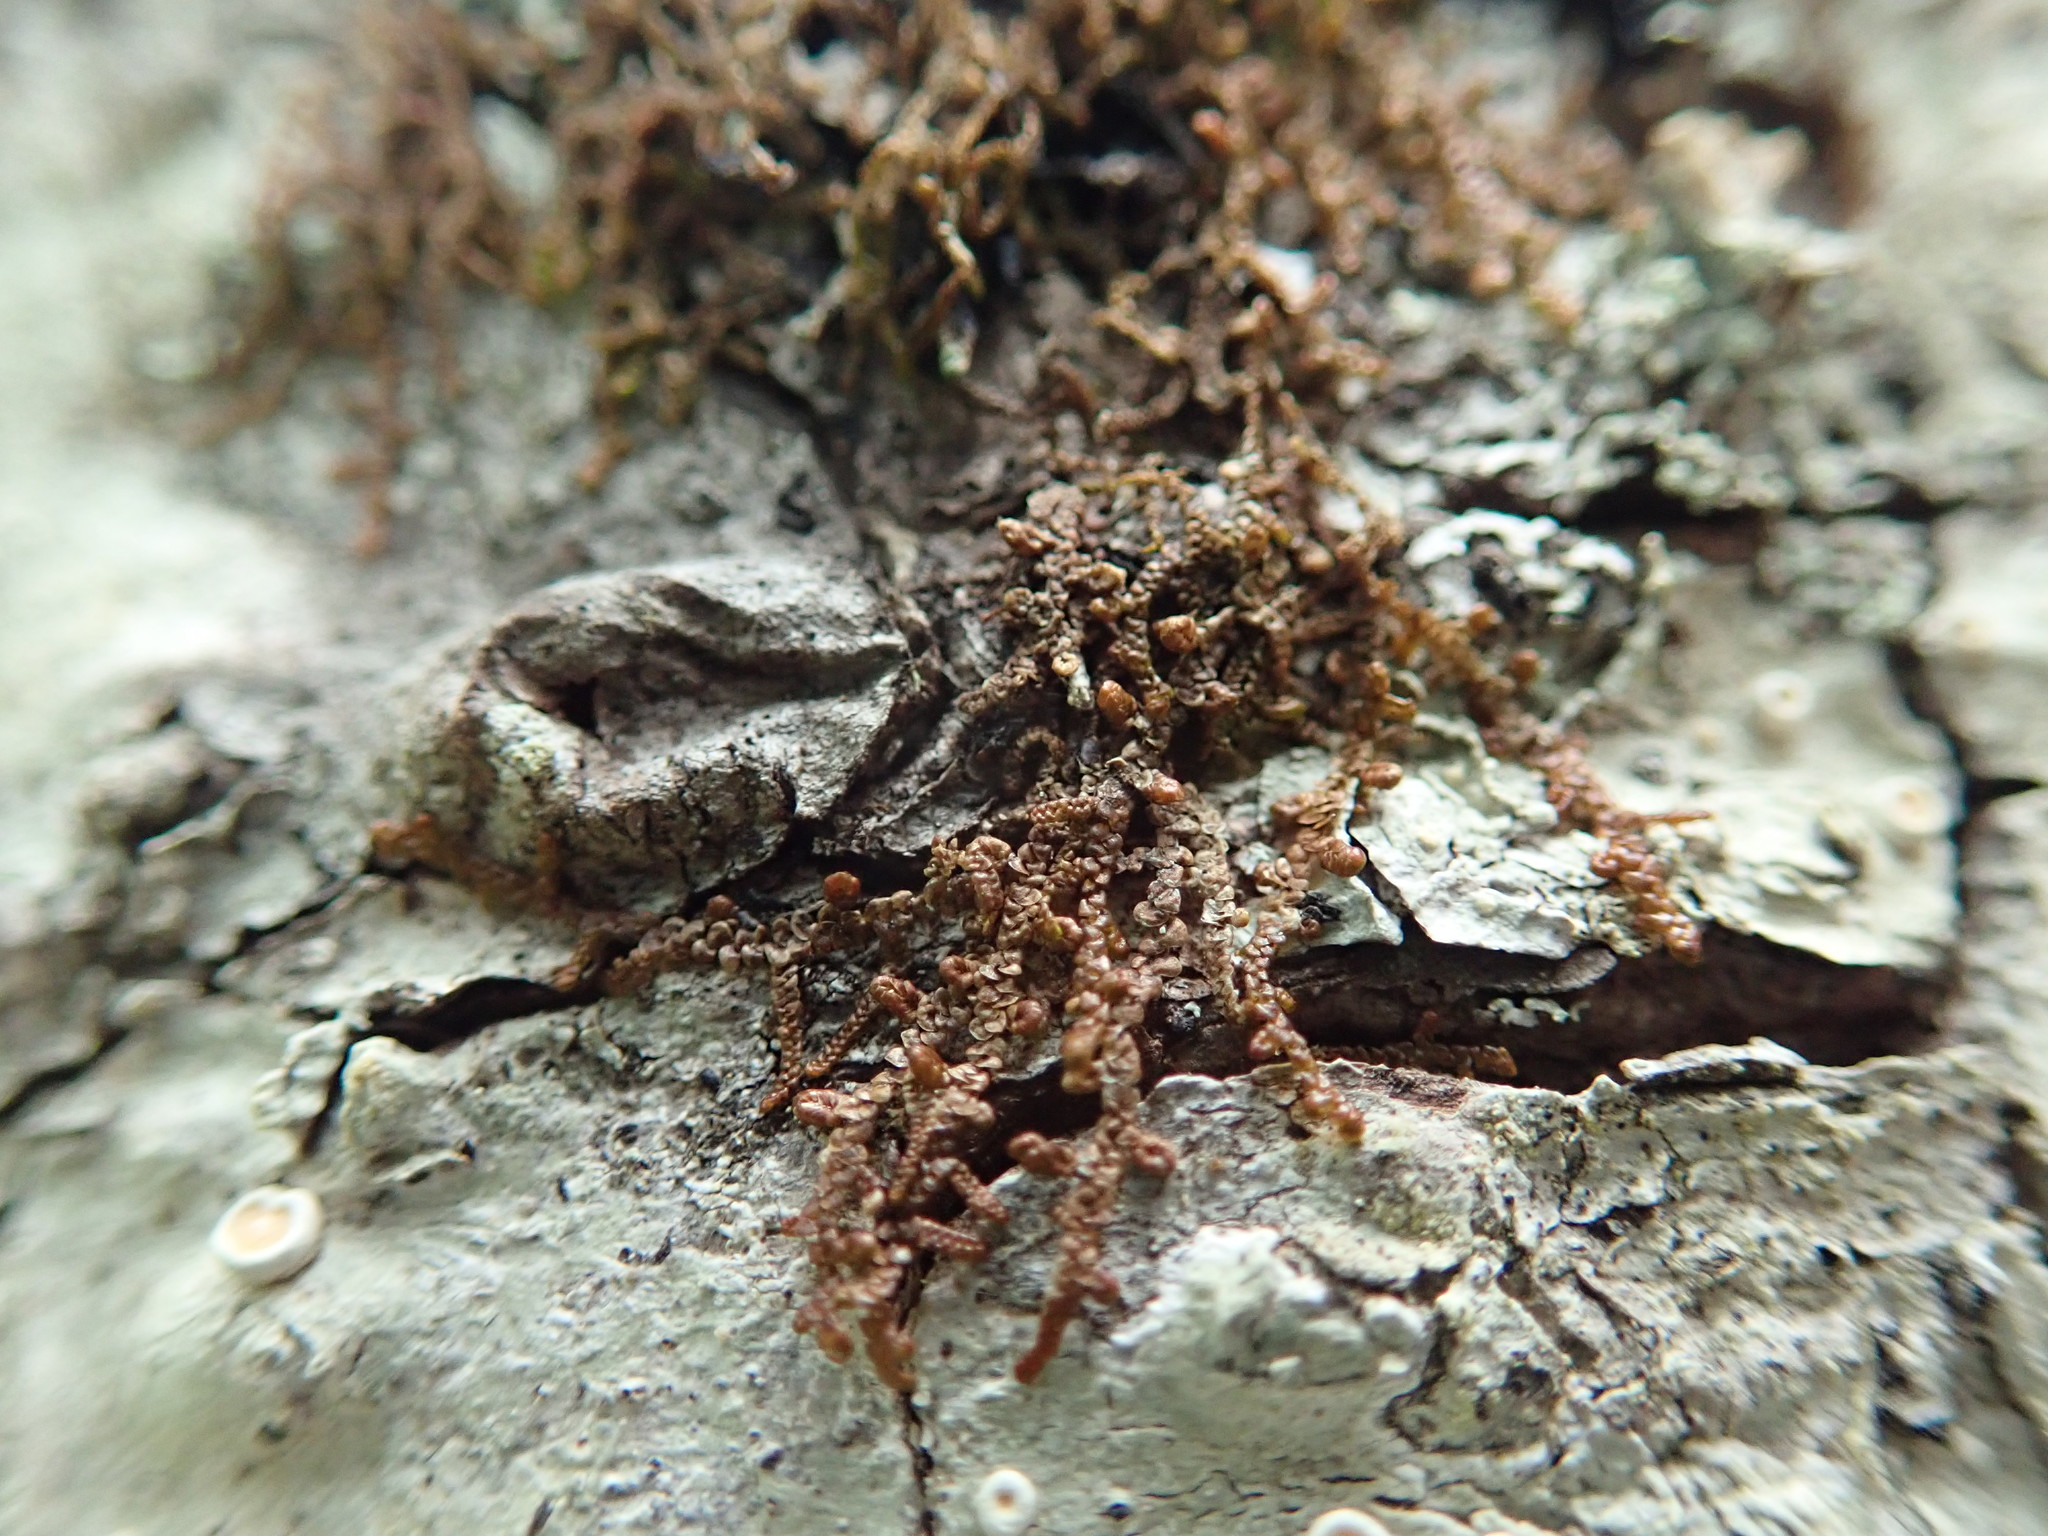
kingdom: Plantae
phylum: Marchantiophyta
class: Jungermanniopsida
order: Porellales
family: Frullaniaceae
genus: Frullania
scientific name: Frullania nisquallensis
